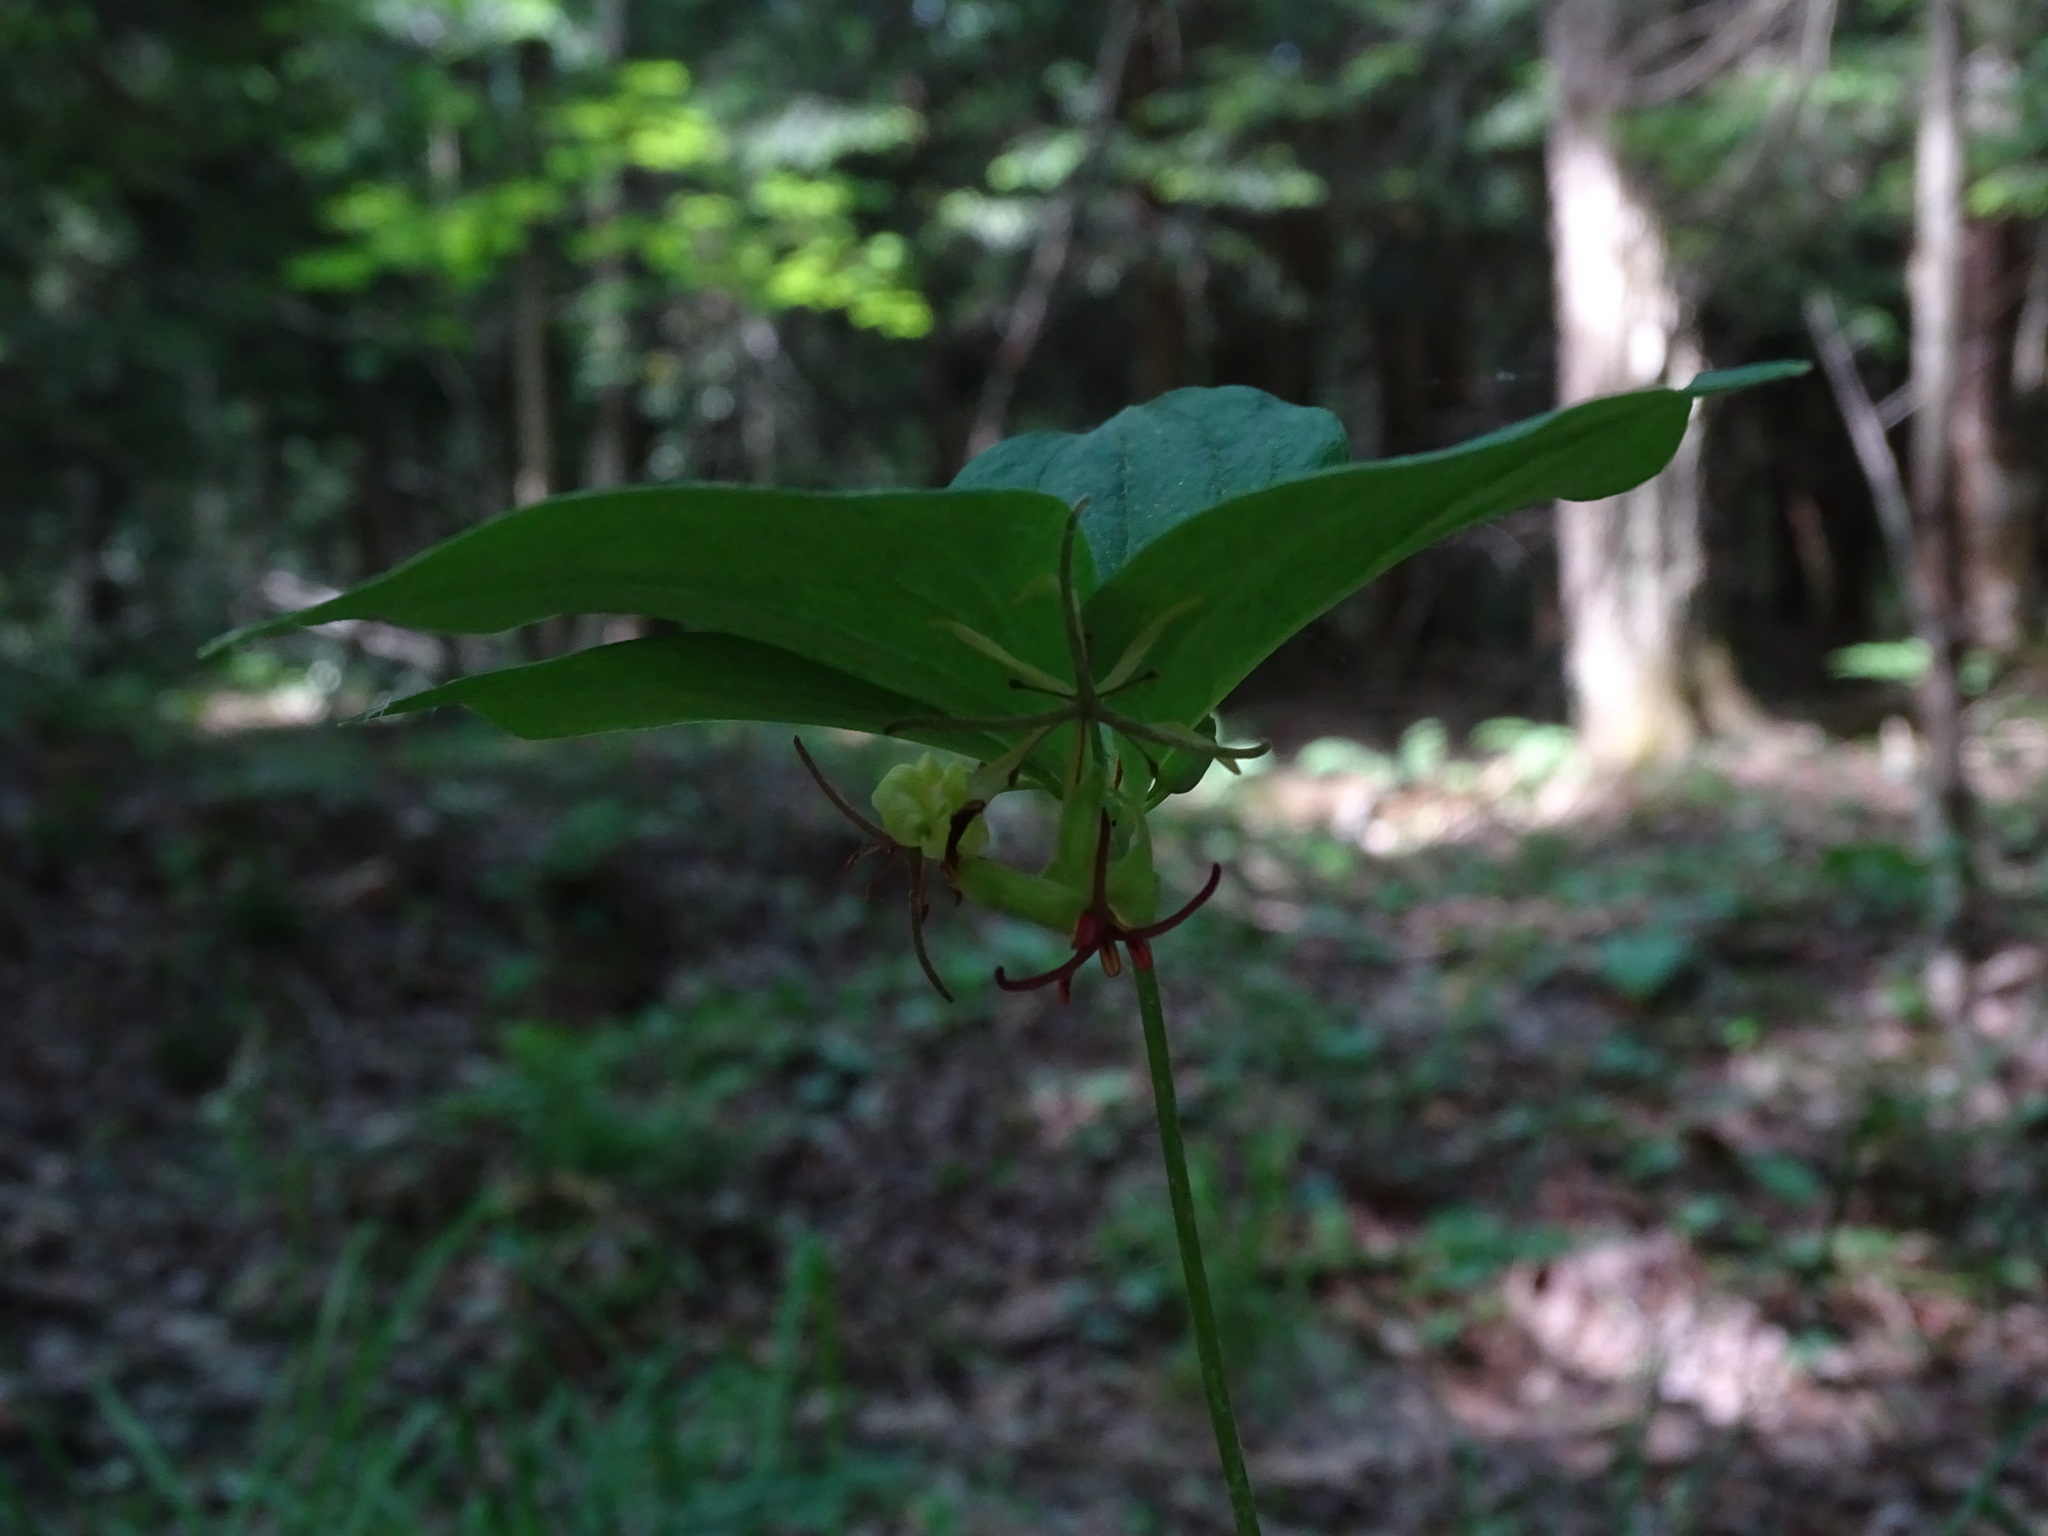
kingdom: Plantae
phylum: Tracheophyta
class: Liliopsida
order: Liliales
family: Liliaceae
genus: Medeola
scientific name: Medeola virginiana
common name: Indian cucumber-root
